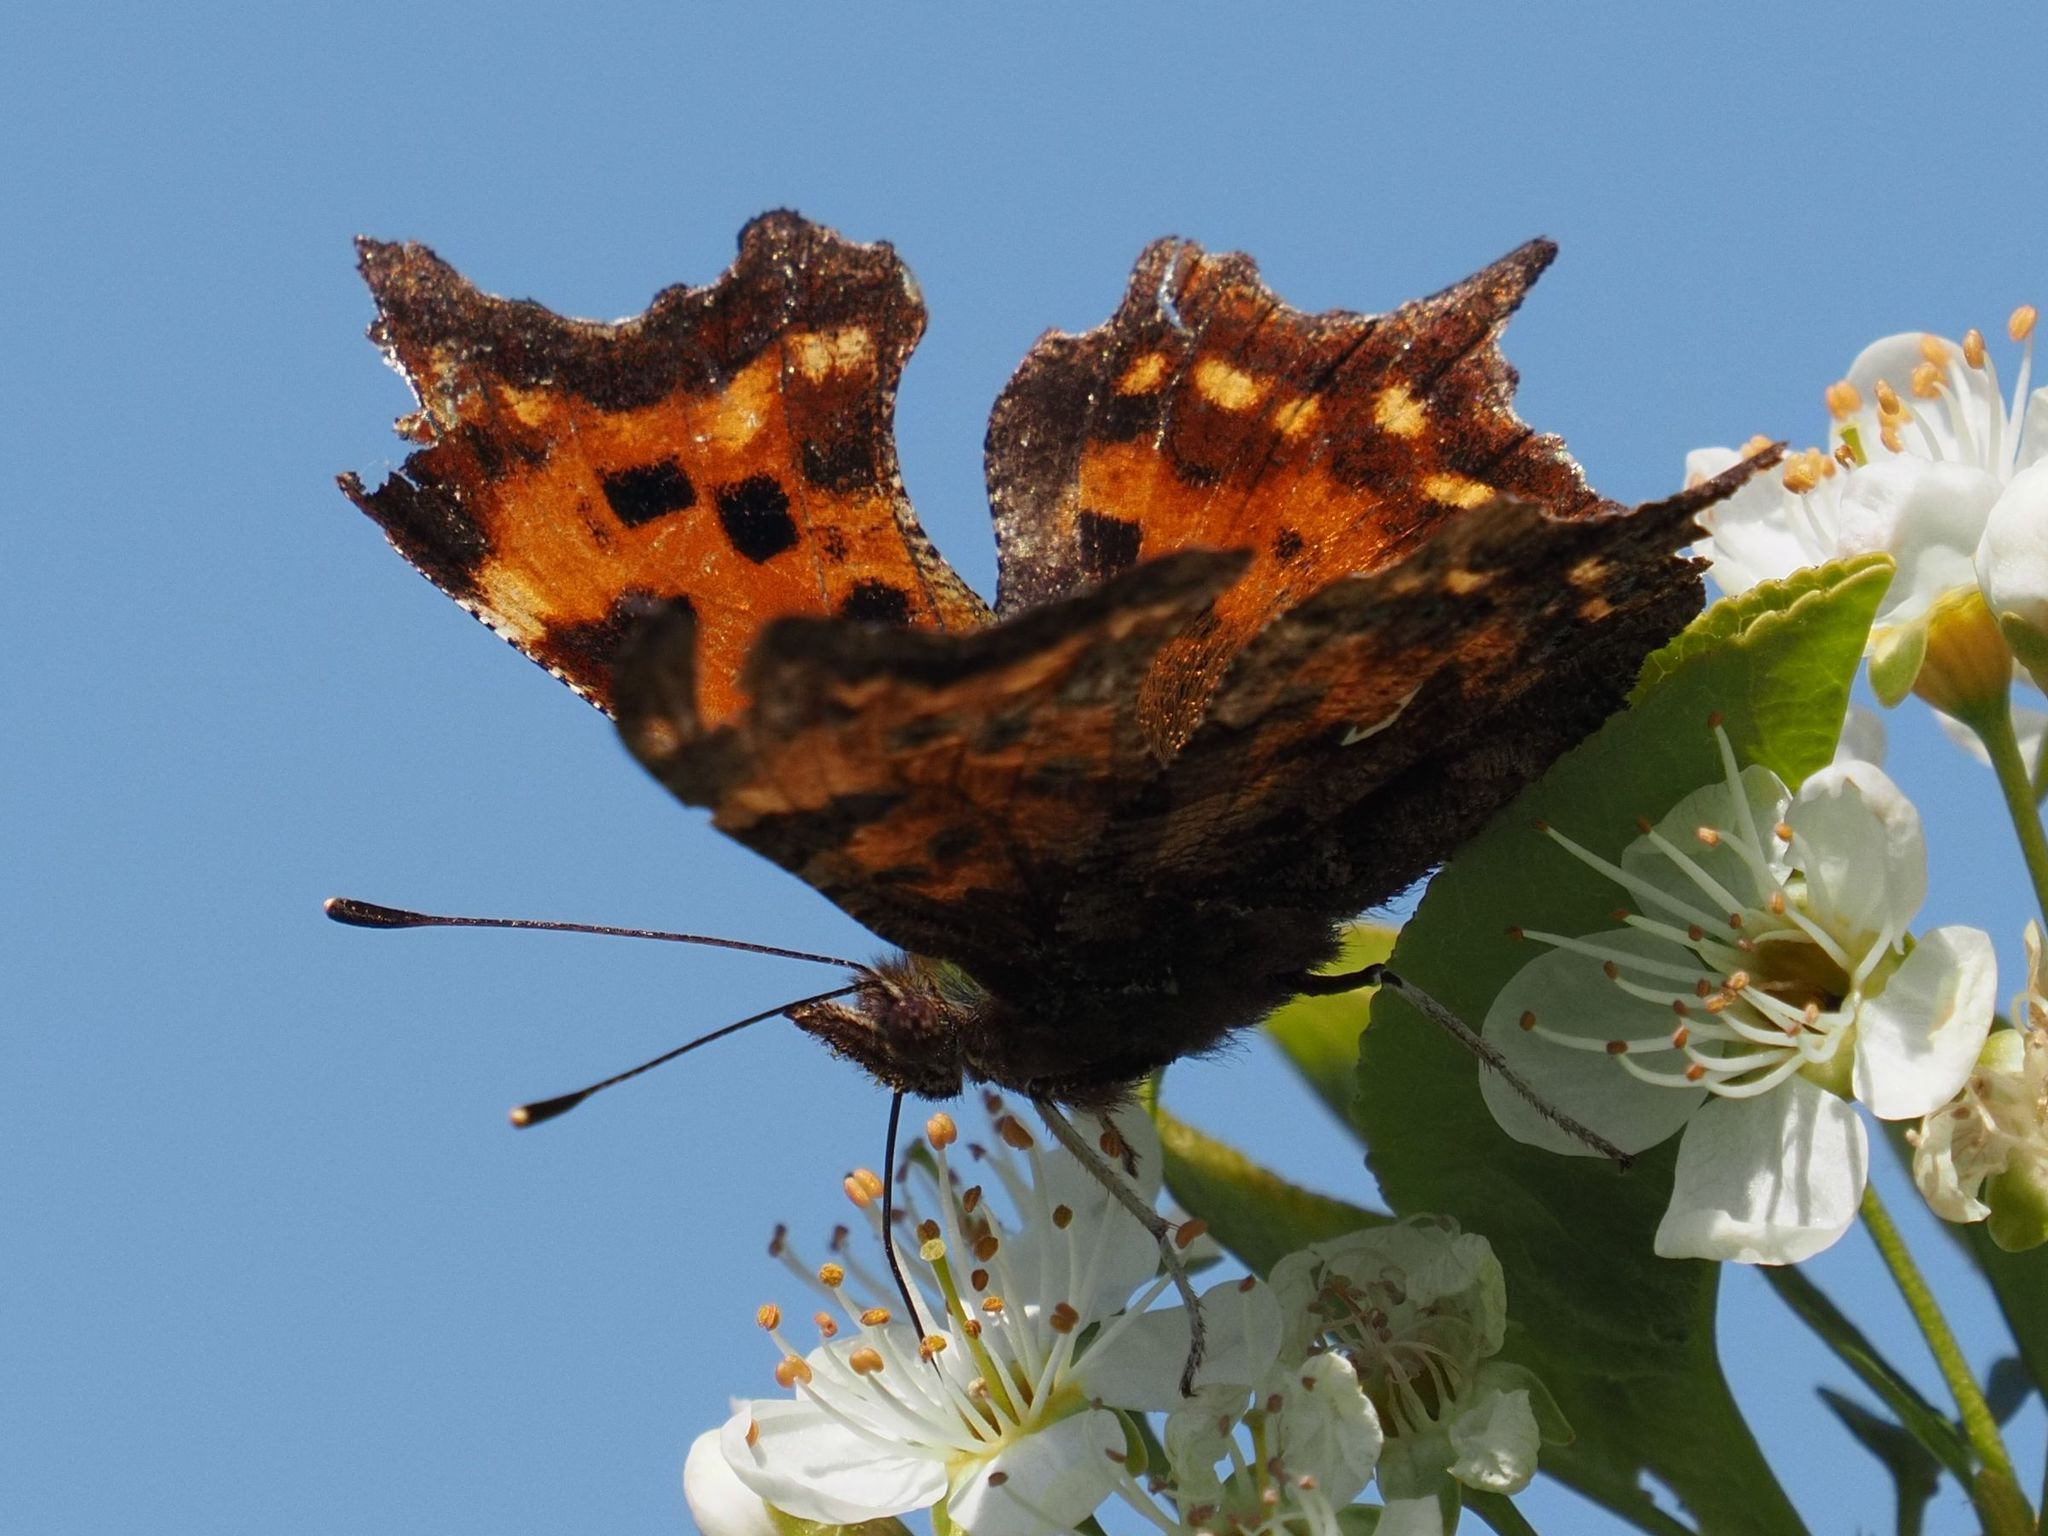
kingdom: Animalia
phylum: Arthropoda
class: Insecta
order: Lepidoptera
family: Nymphalidae
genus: Polygonia
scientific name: Polygonia c-album
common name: Comma
